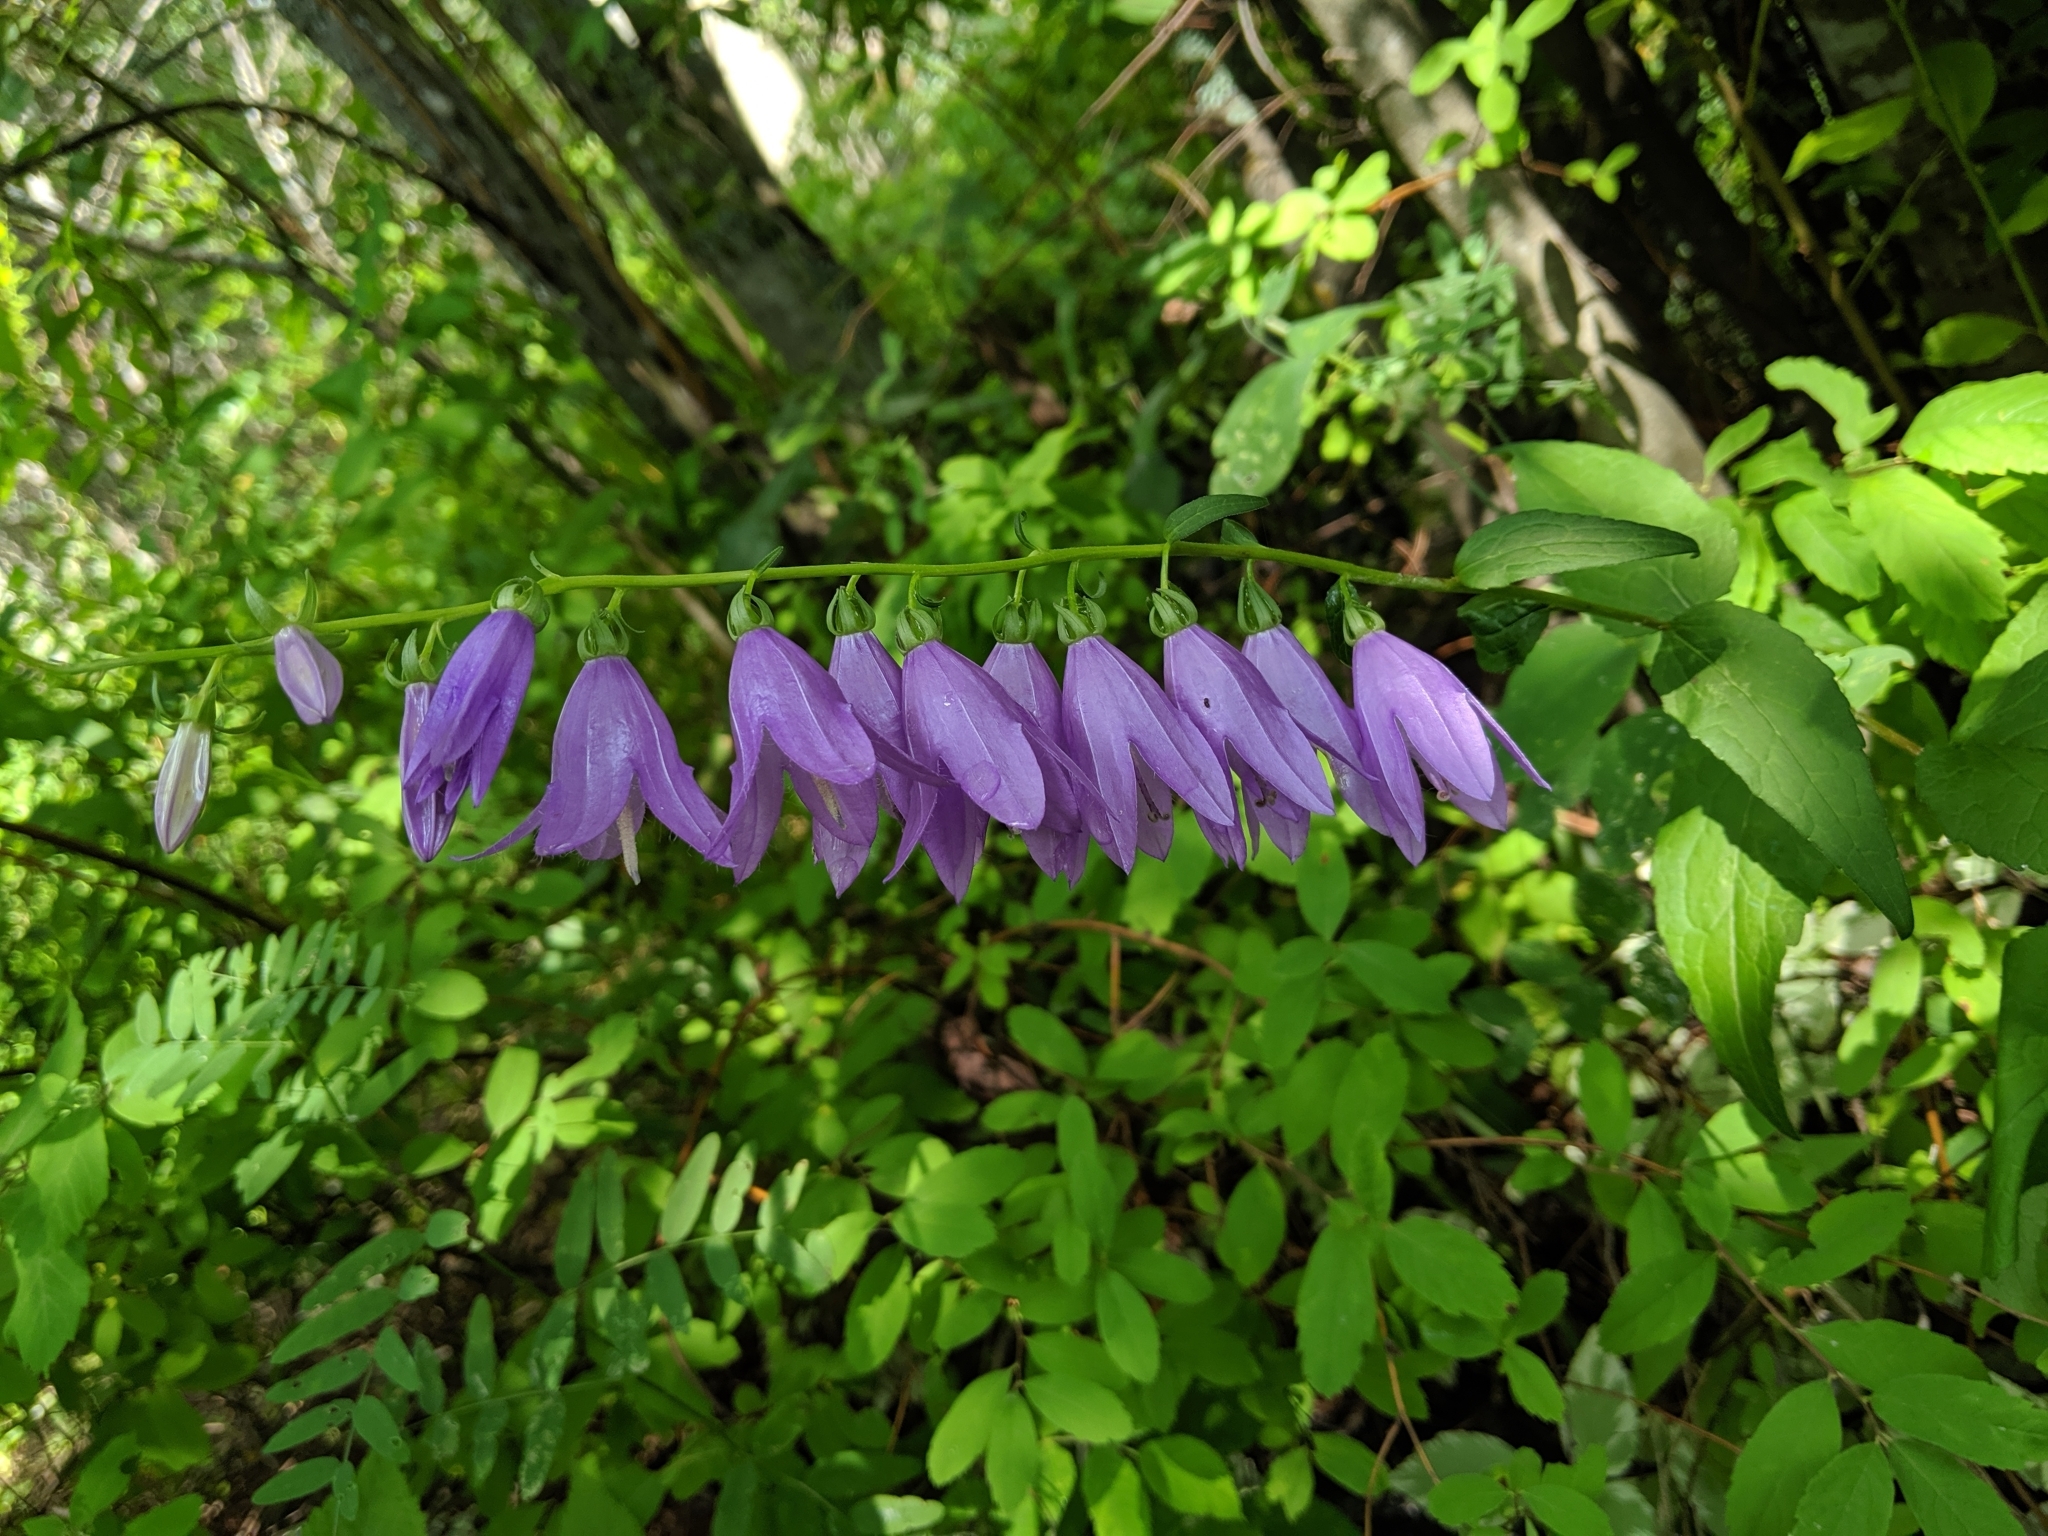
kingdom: Plantae
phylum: Tracheophyta
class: Magnoliopsida
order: Asterales
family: Campanulaceae
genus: Campanula
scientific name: Campanula rapunculoides
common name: Creeping bellflower
